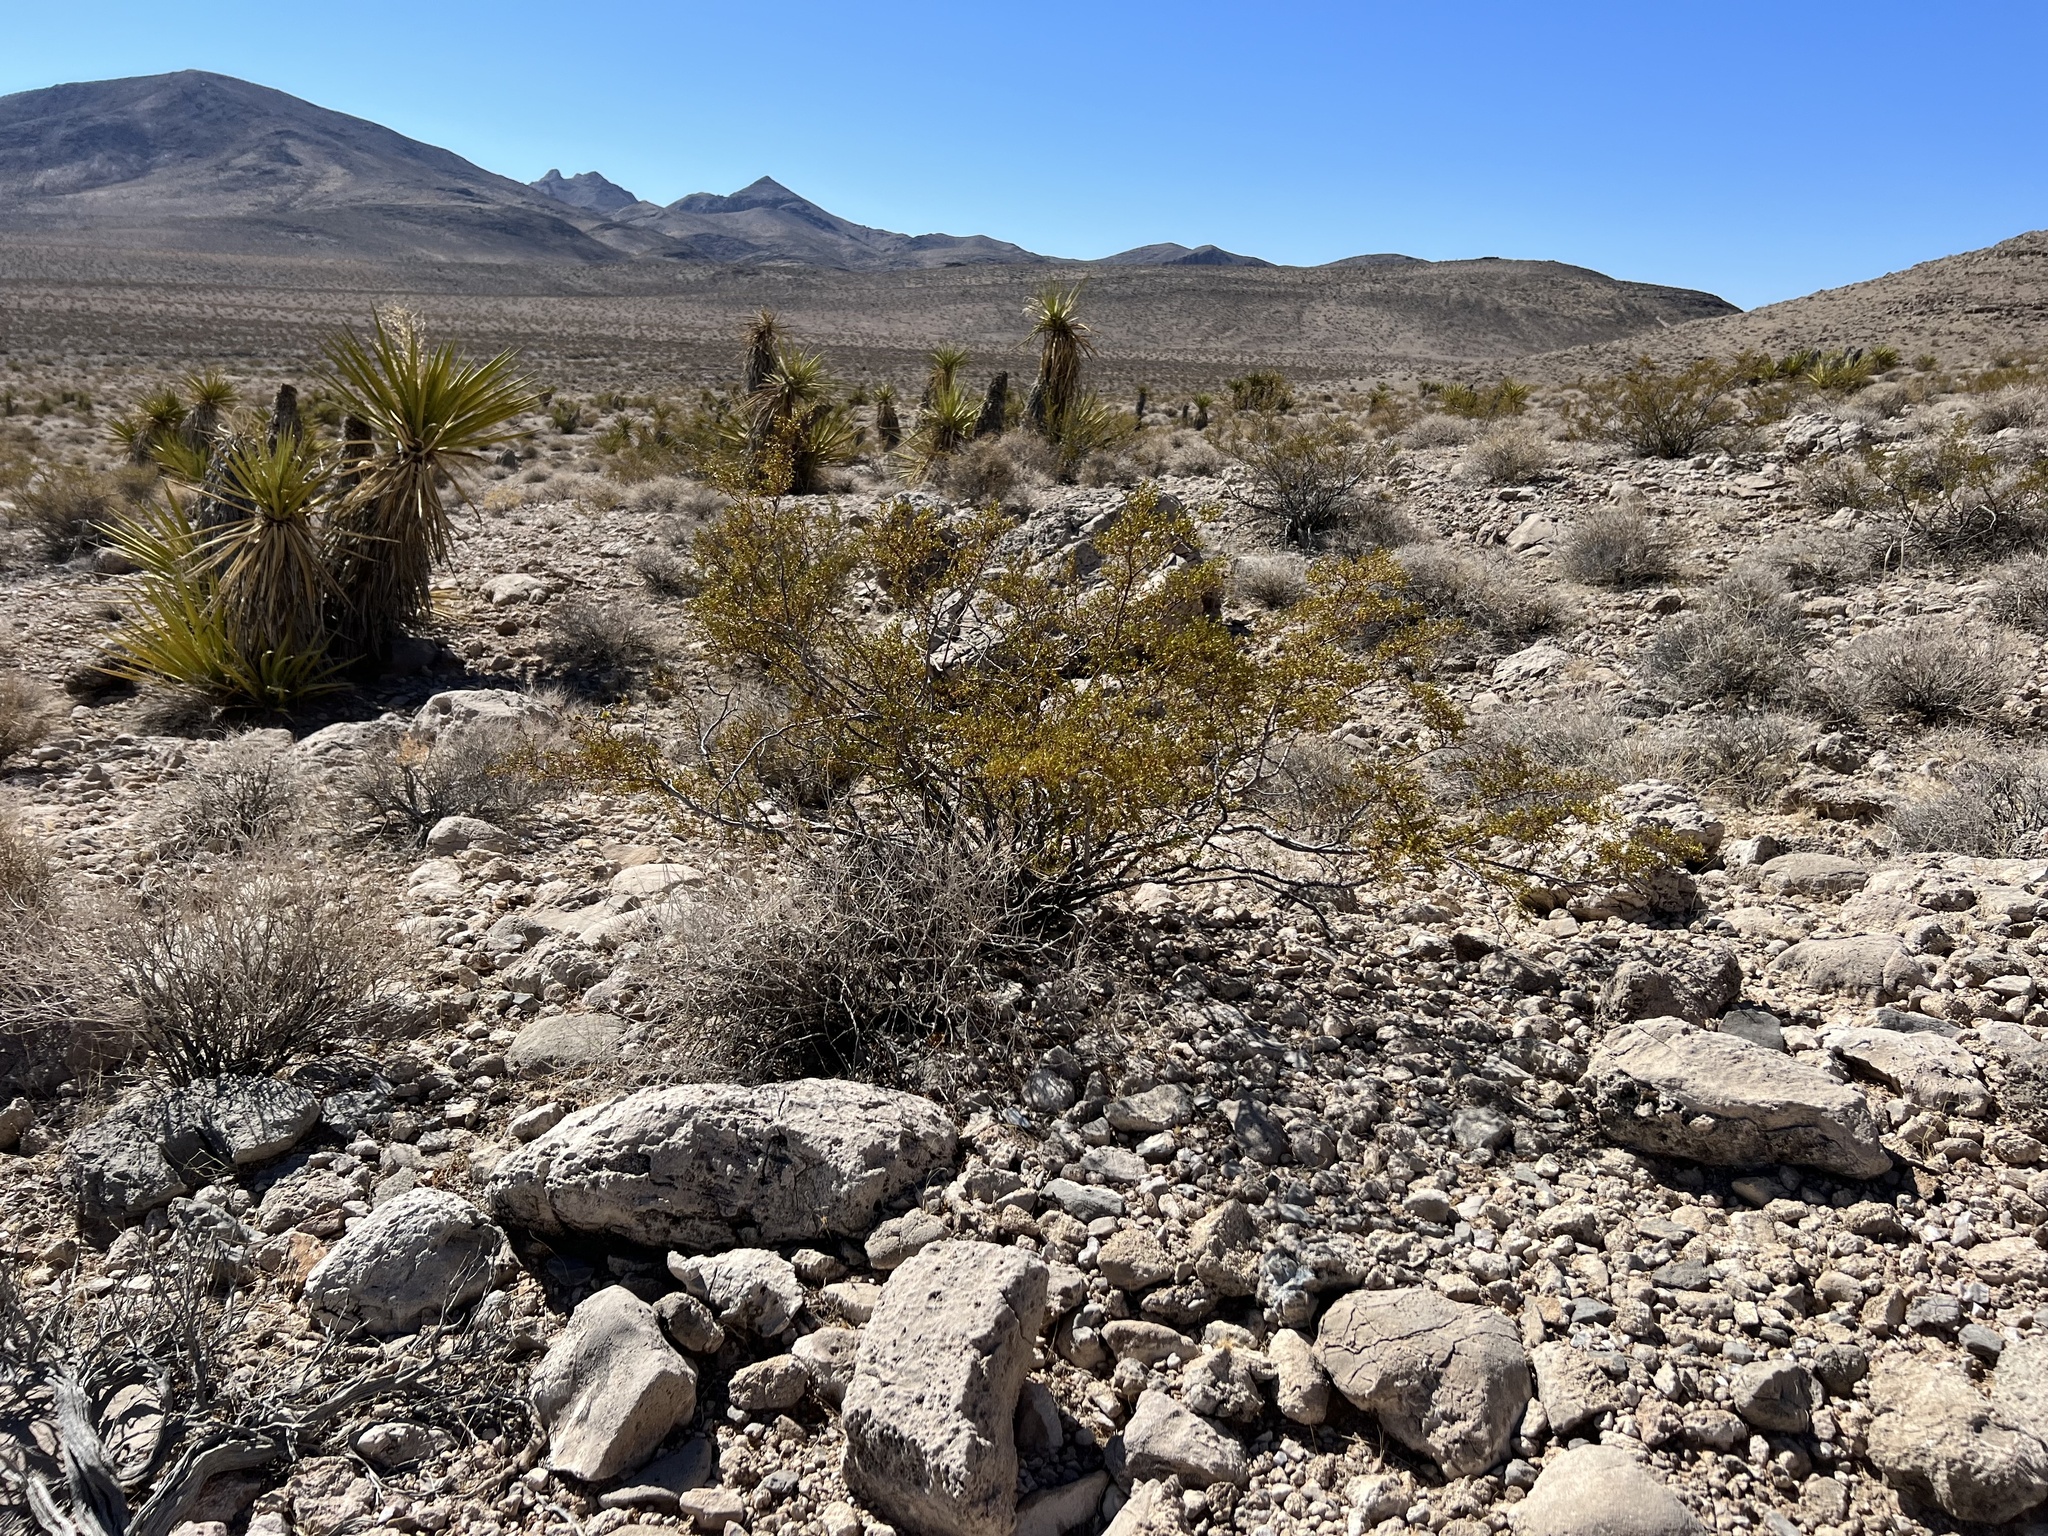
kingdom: Plantae
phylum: Tracheophyta
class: Magnoliopsida
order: Zygophyllales
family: Zygophyllaceae
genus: Larrea
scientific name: Larrea tridentata
